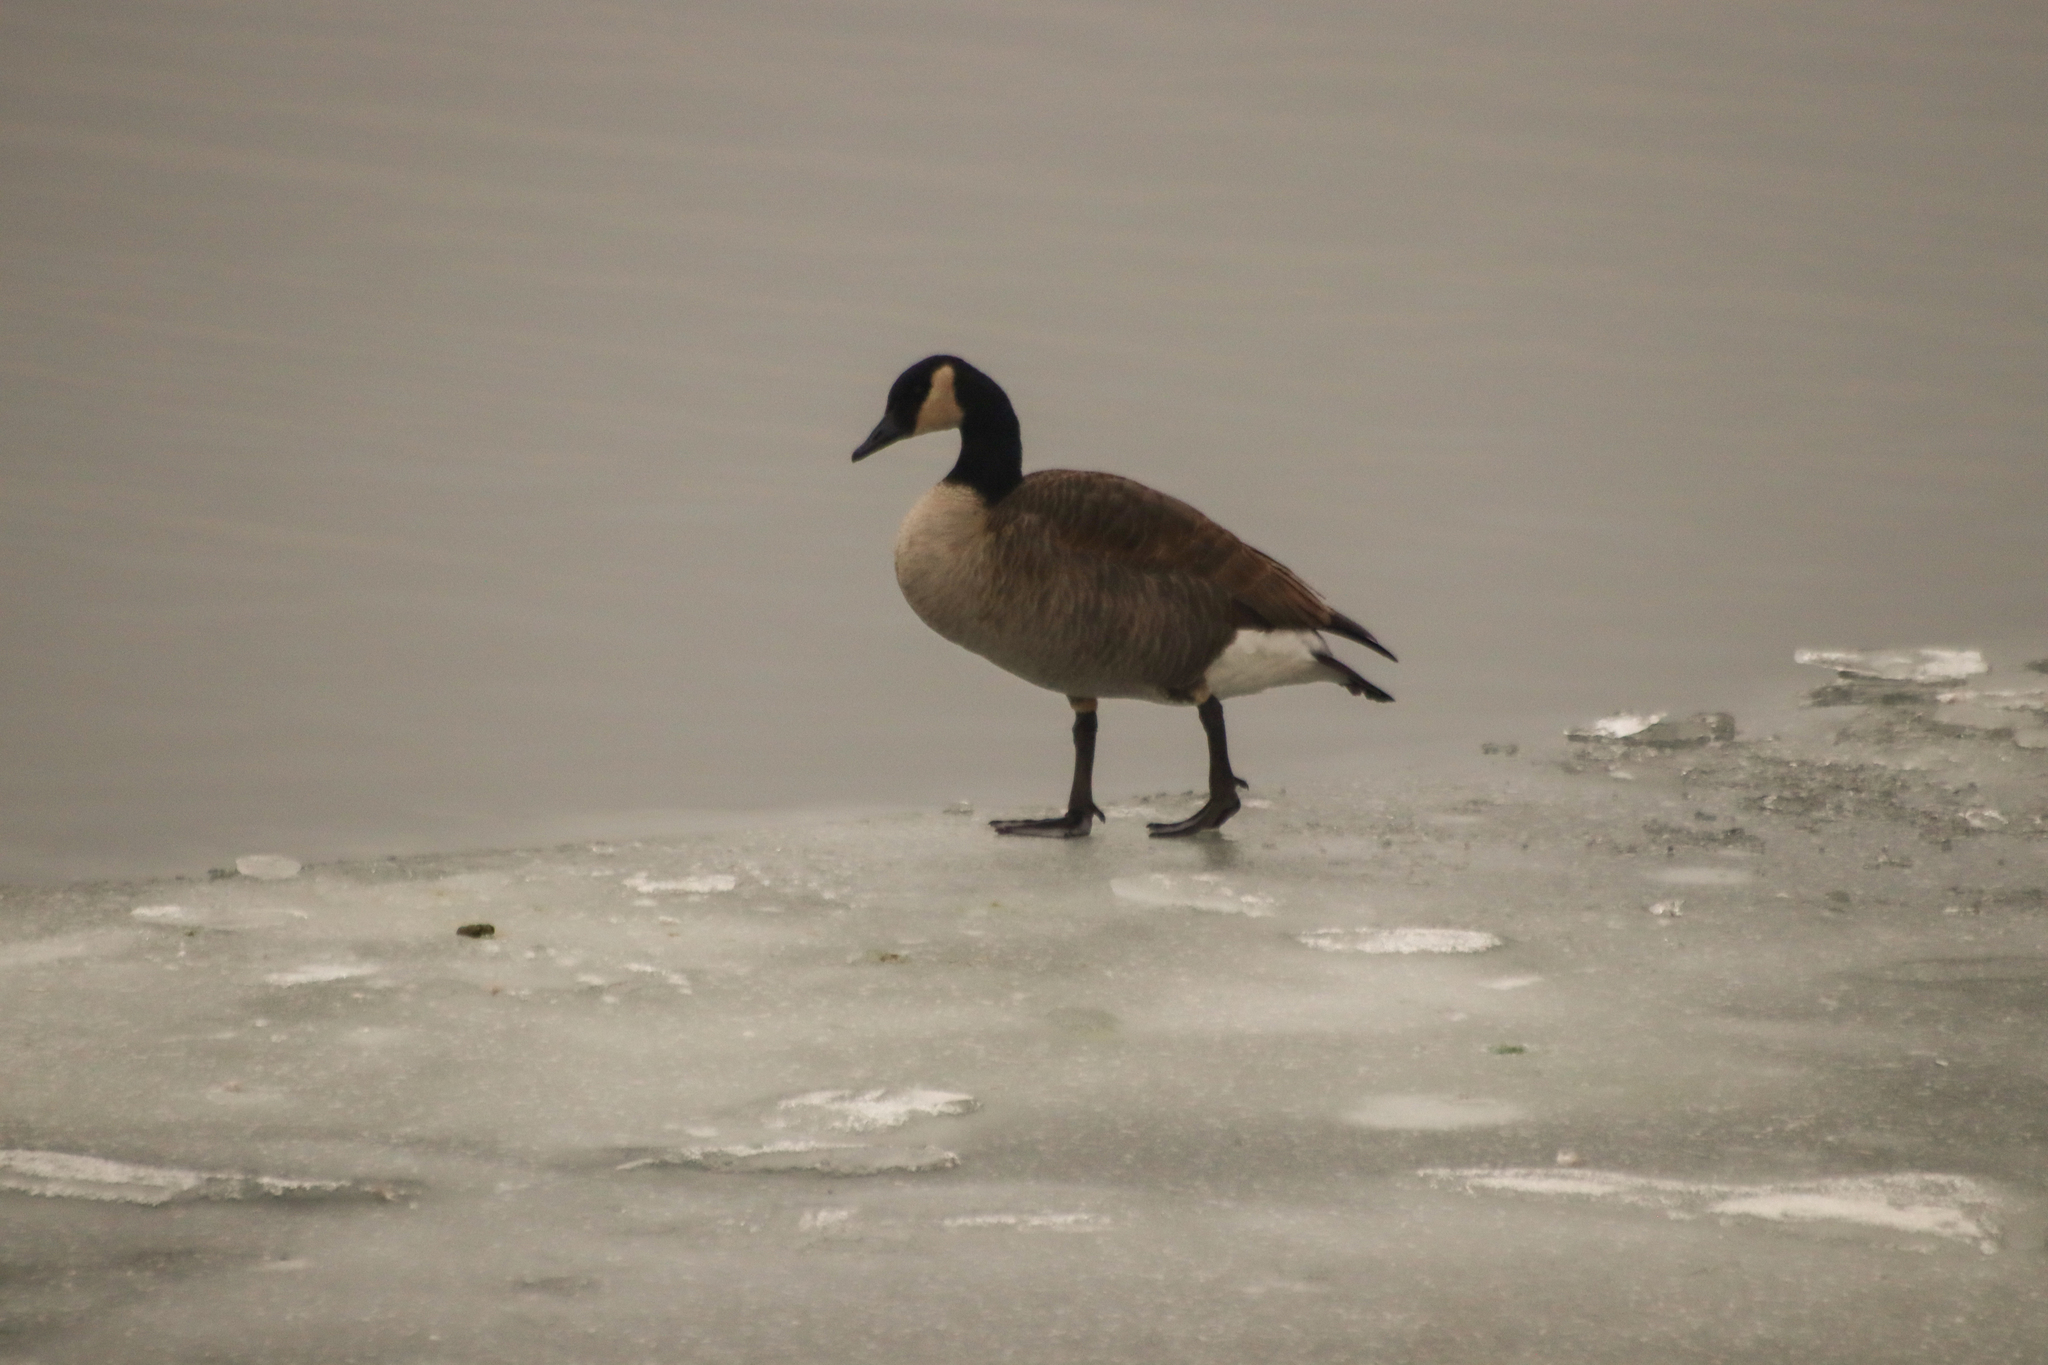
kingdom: Animalia
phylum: Chordata
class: Aves
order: Anseriformes
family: Anatidae
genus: Branta
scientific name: Branta canadensis
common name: Canada goose
